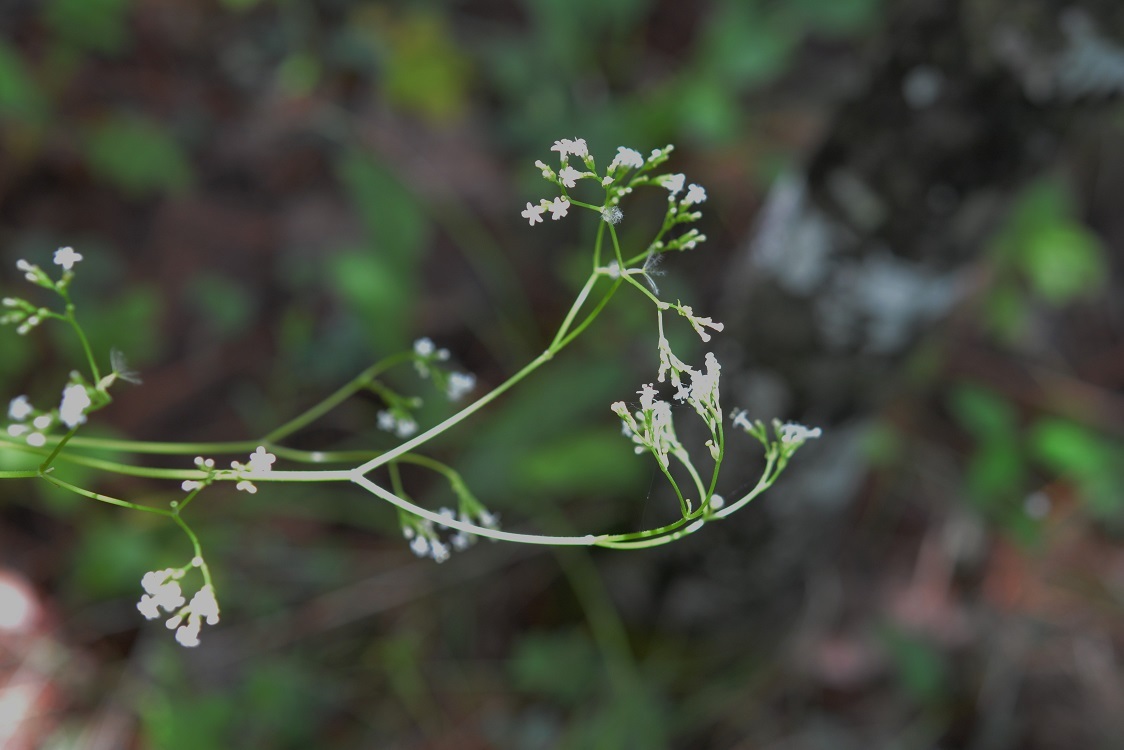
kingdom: Plantae
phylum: Tracheophyta
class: Magnoliopsida
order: Dipsacales
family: Caprifoliaceae
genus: Valeriana
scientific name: Valeriana sorbifolia
